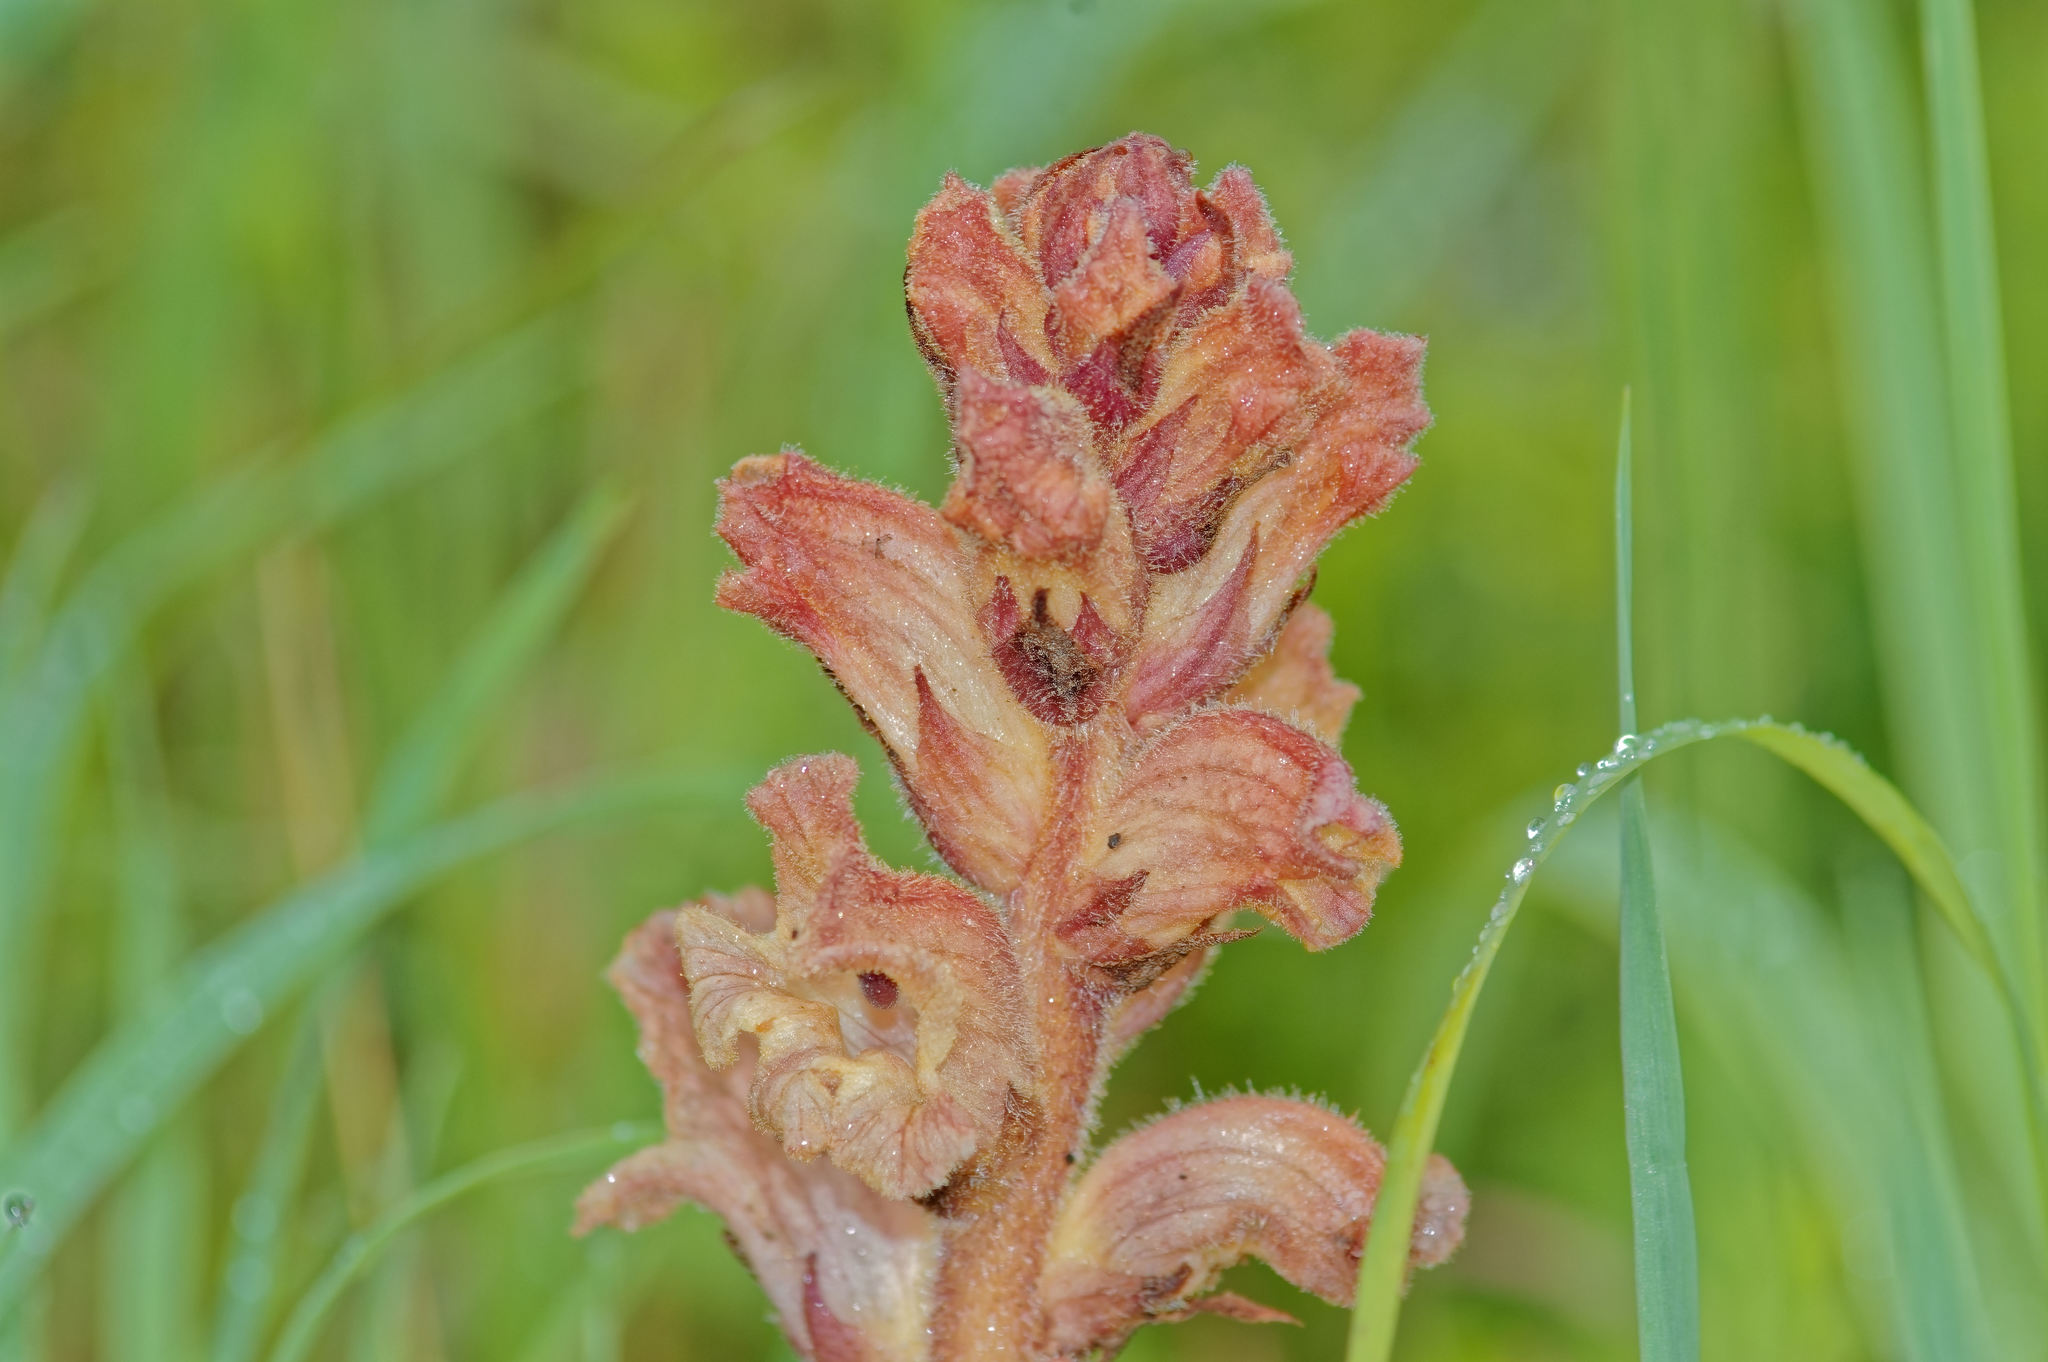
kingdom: Plantae
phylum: Tracheophyta
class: Magnoliopsida
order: Lamiales
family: Orobanchaceae
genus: Orobanche
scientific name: Orobanche caryophyllacea
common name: Bedstraw broomrape
